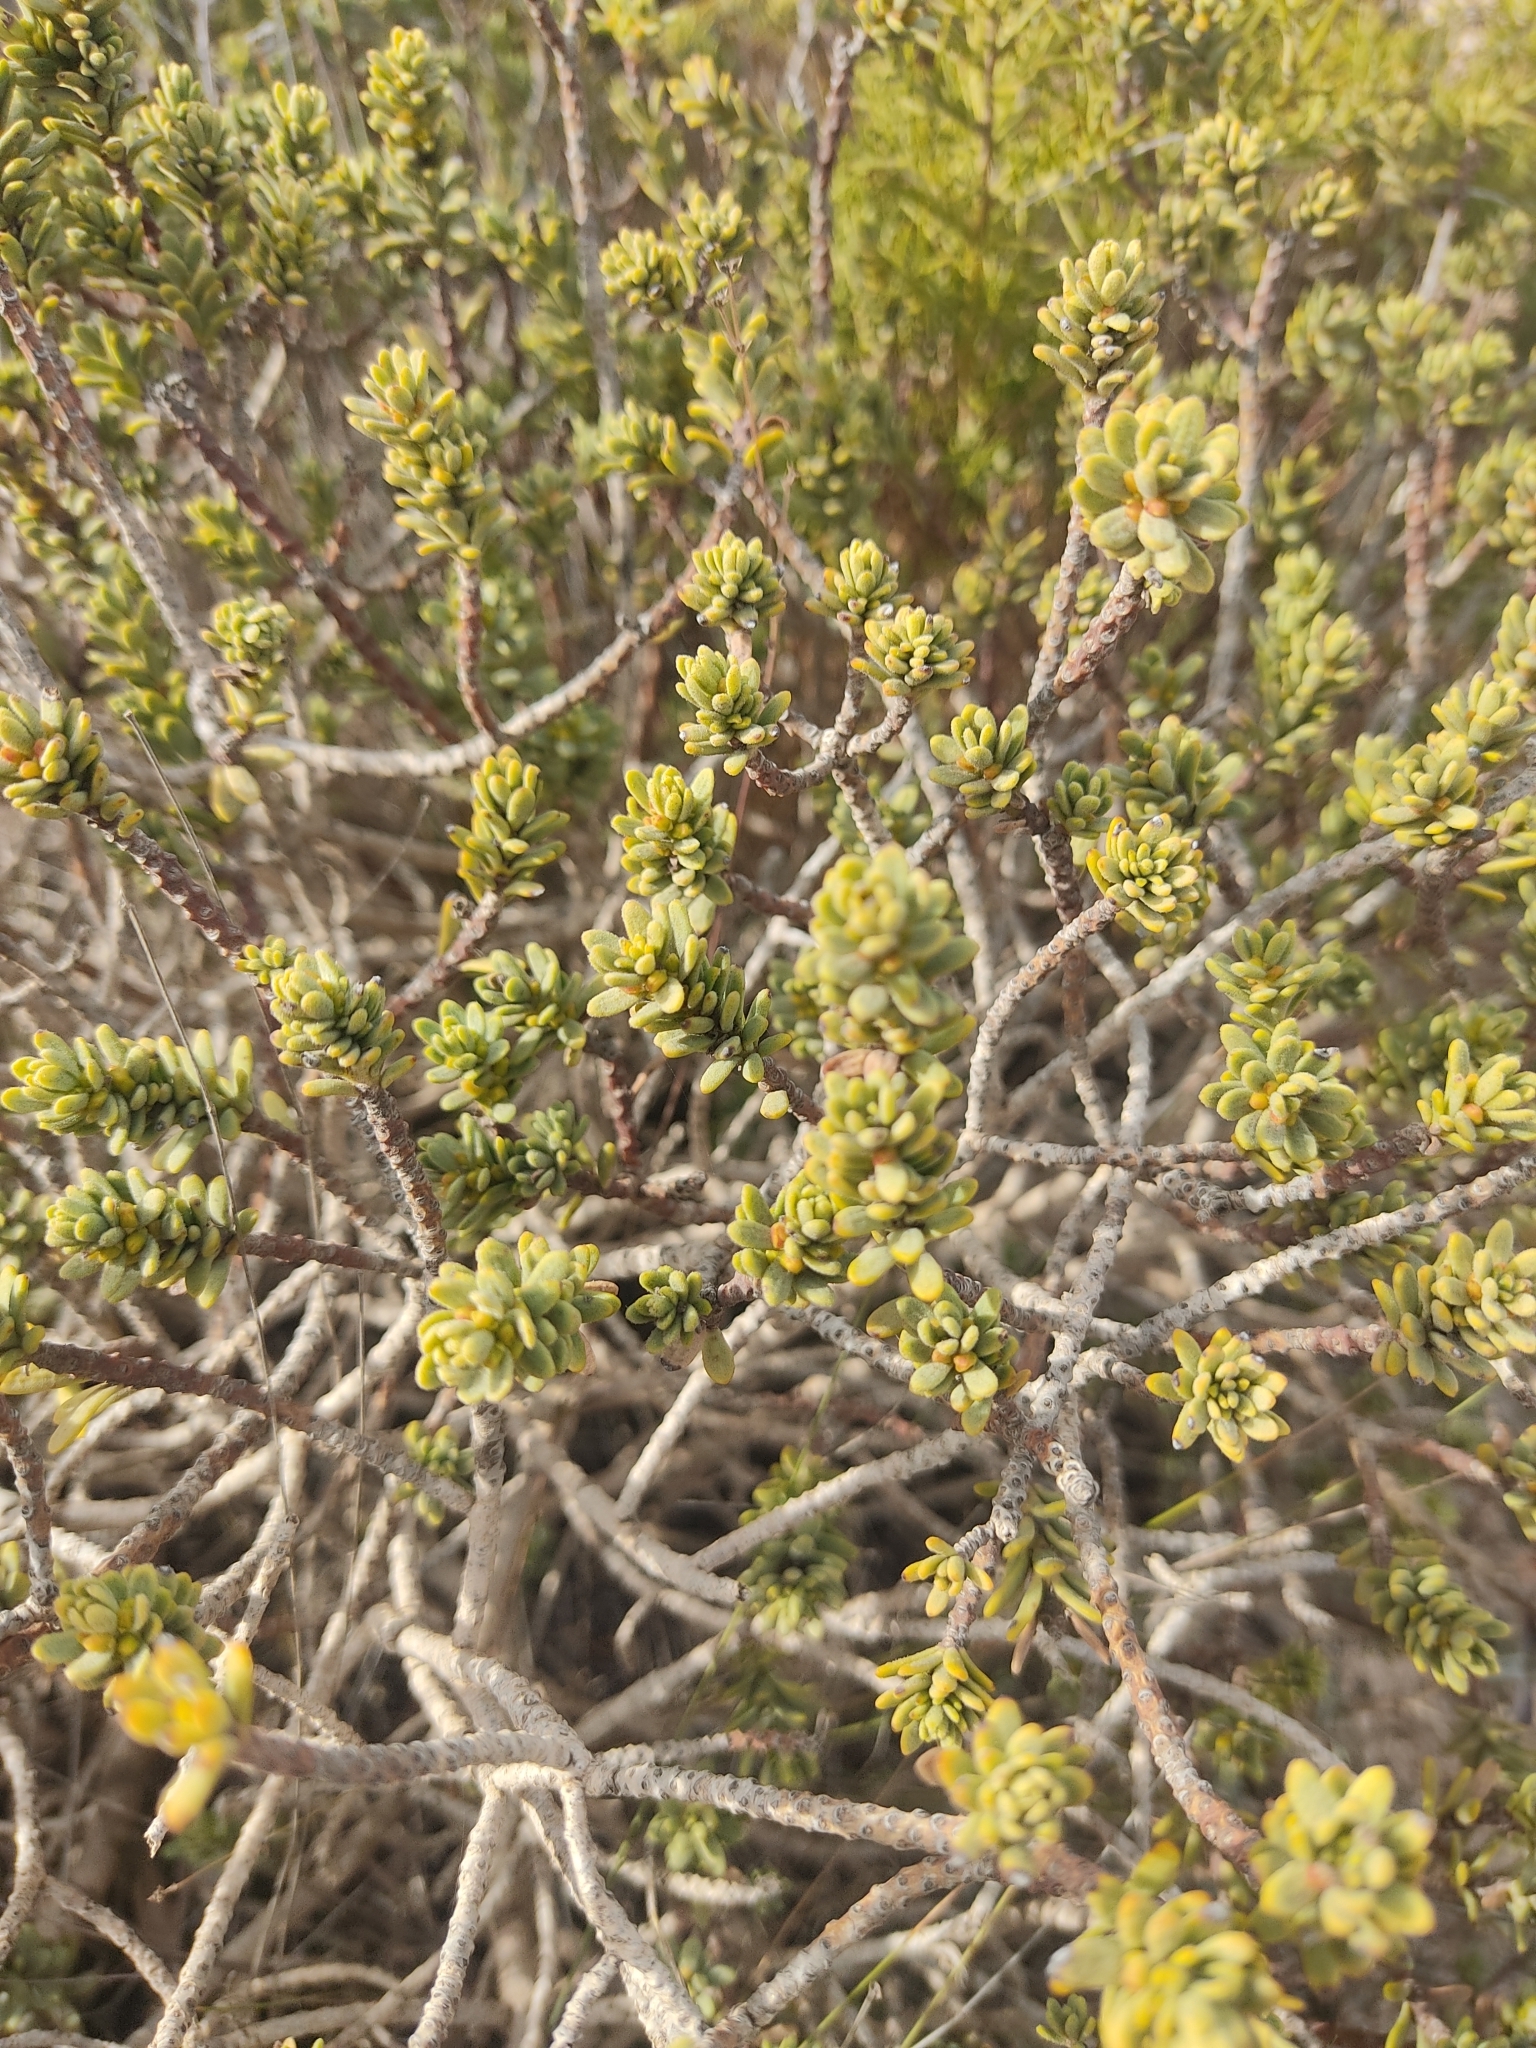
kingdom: Plantae
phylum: Tracheophyta
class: Magnoliopsida
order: Malvales
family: Thymelaeaceae
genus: Thymelaea
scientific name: Thymelaea hirsuta
